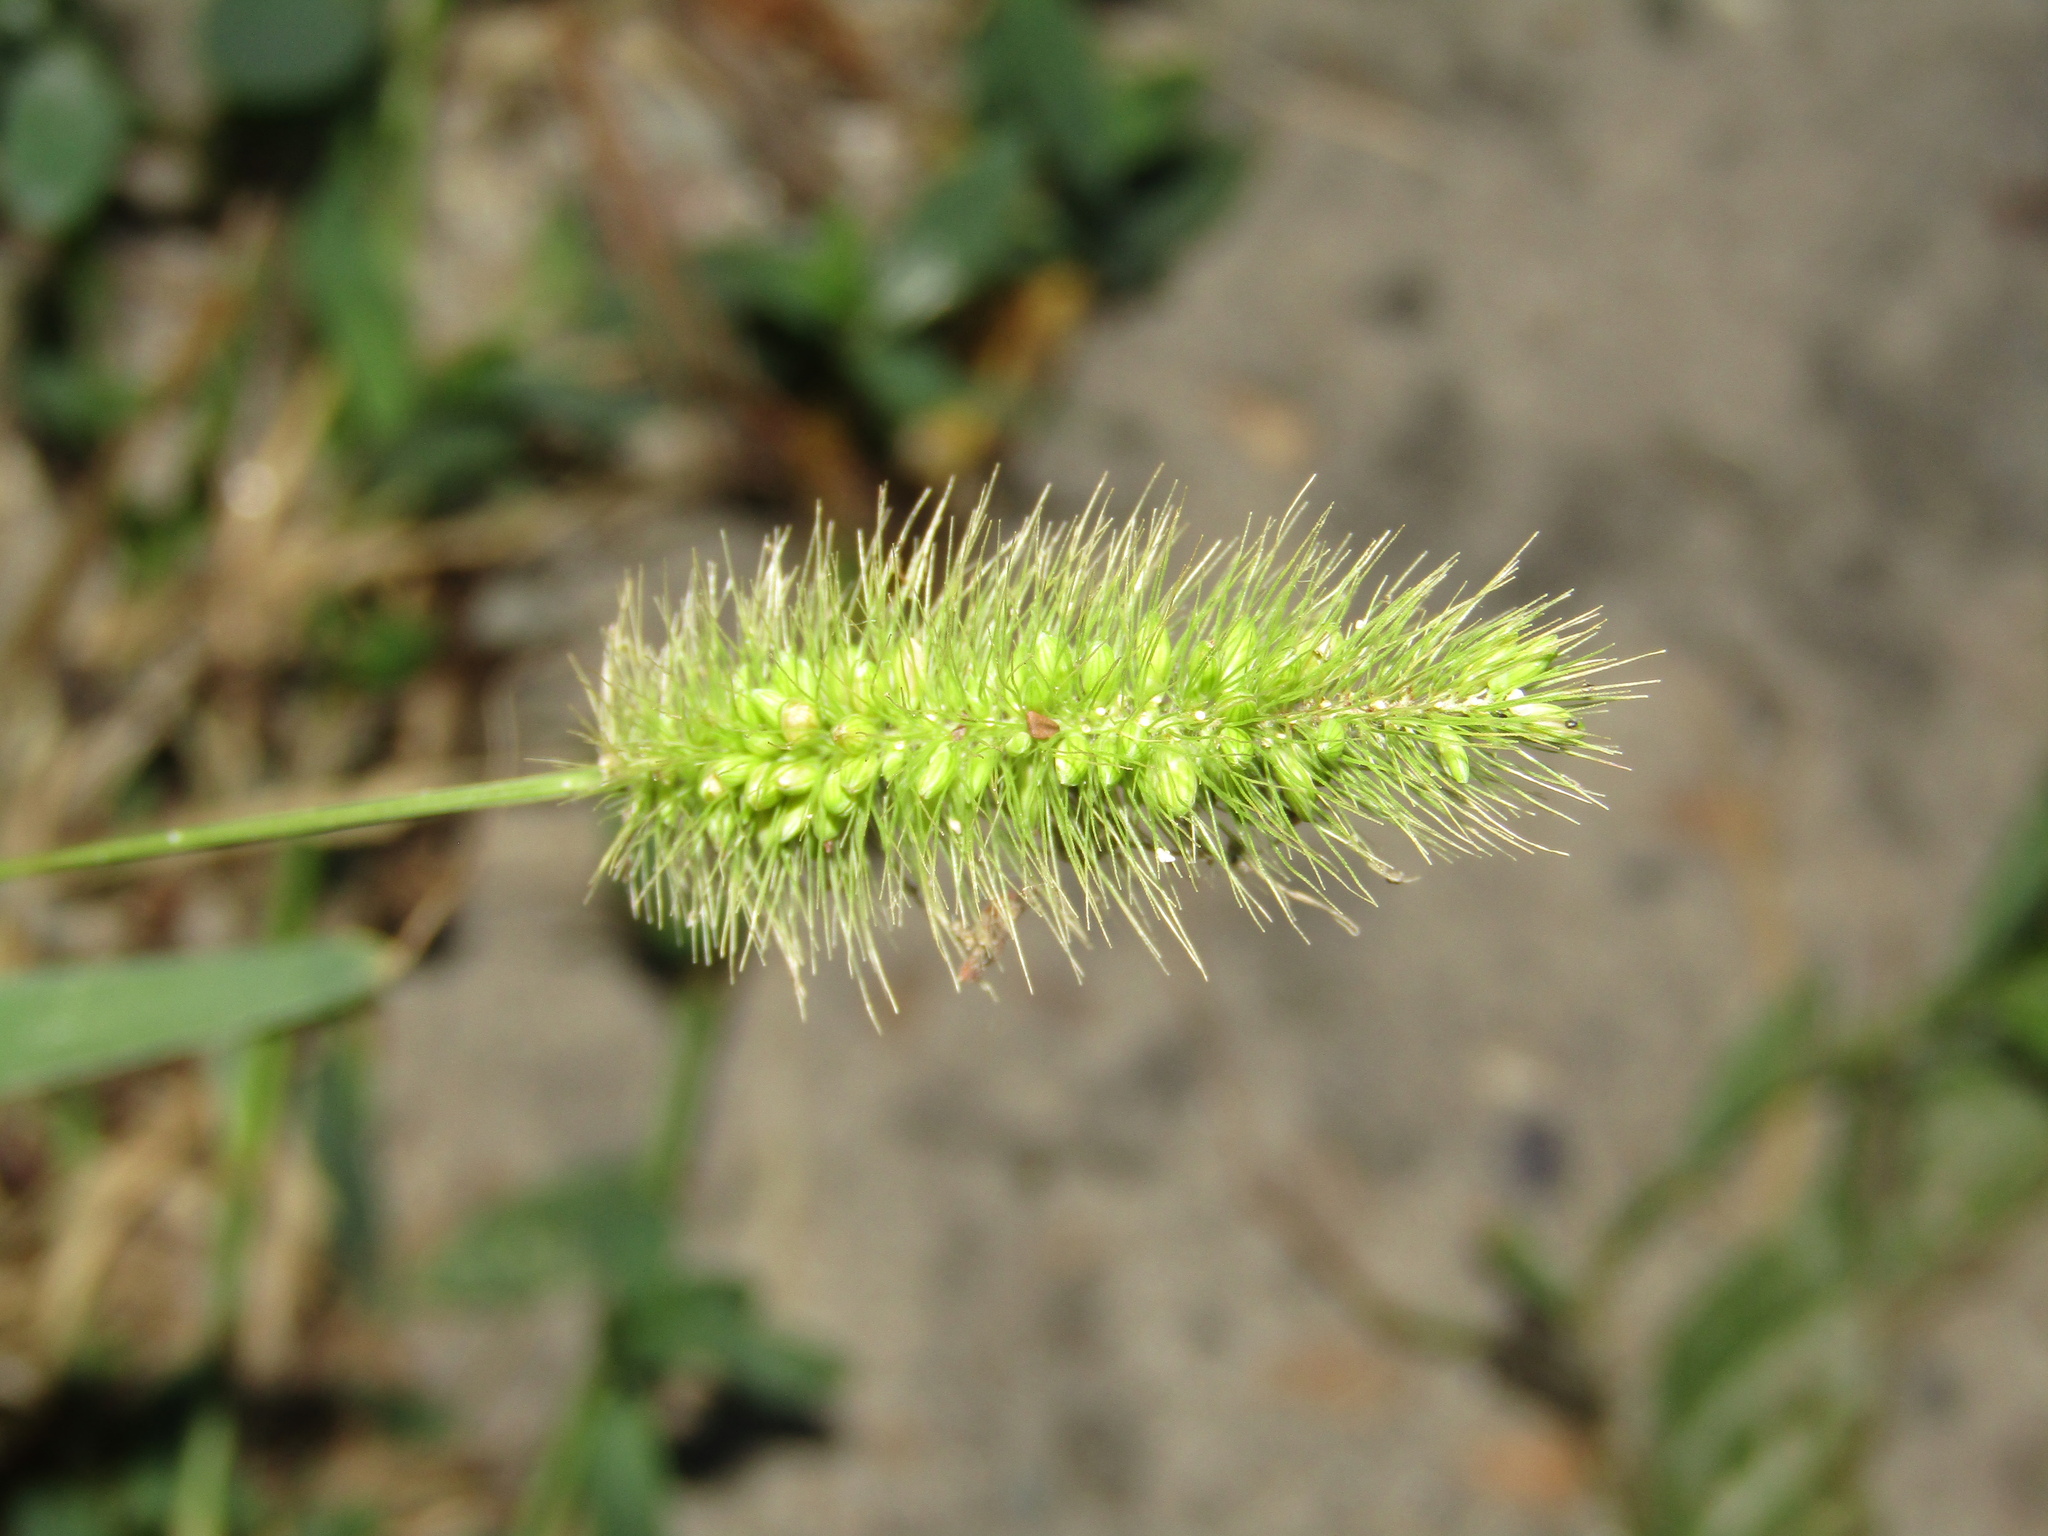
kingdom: Plantae
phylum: Tracheophyta
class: Liliopsida
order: Poales
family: Poaceae
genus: Setaria
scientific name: Setaria viridis
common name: Green bristlegrass
